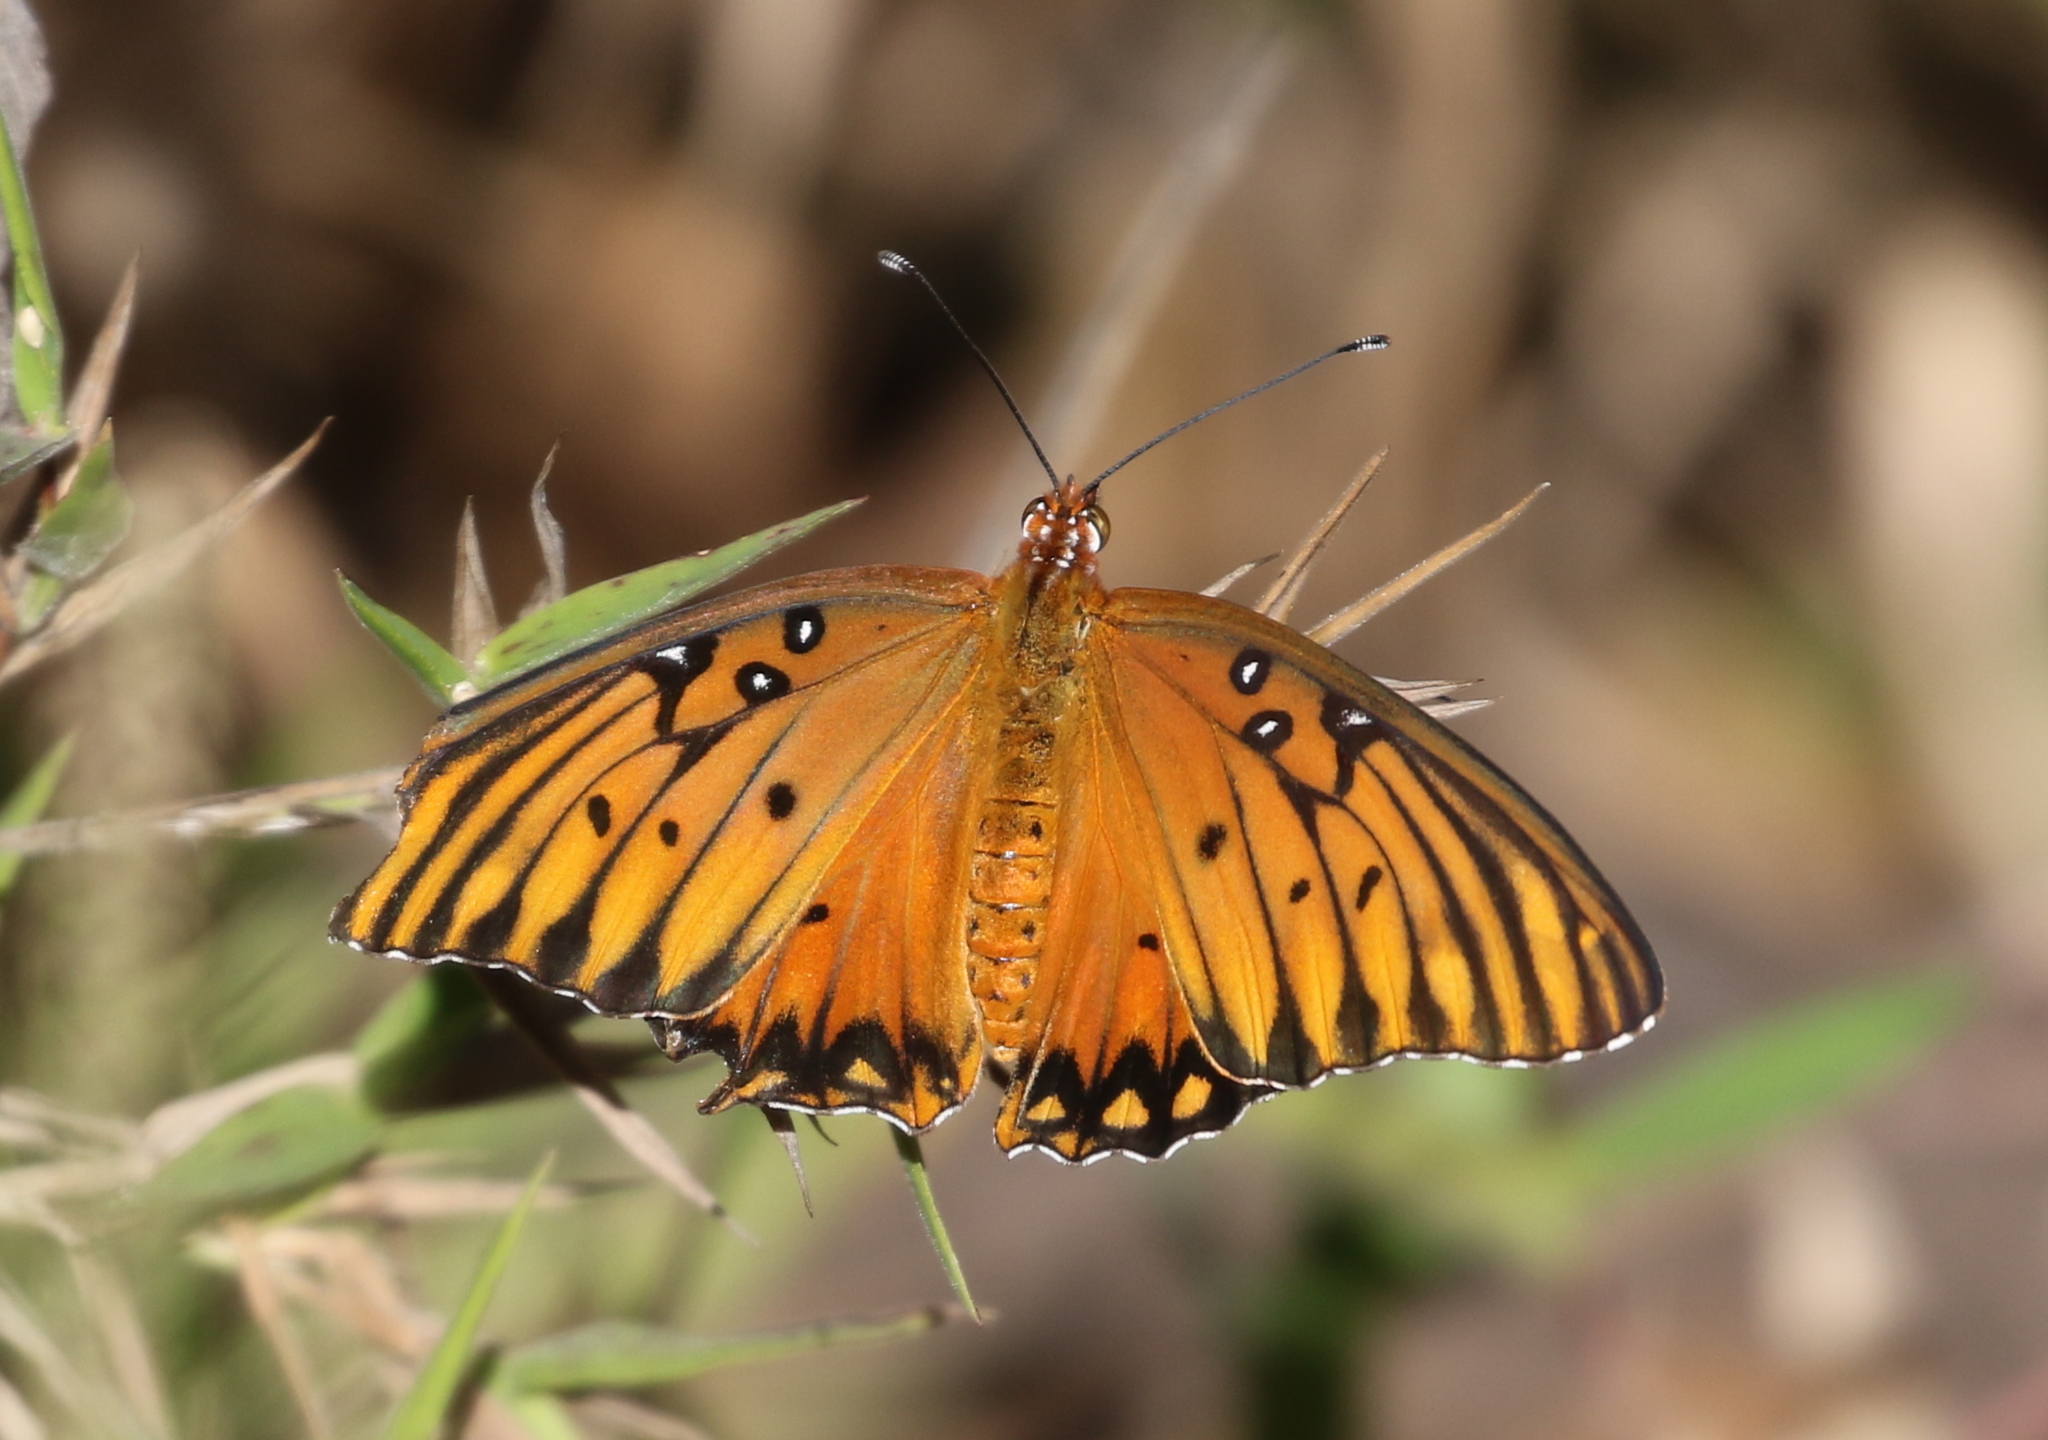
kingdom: Animalia
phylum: Arthropoda
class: Insecta
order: Lepidoptera
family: Nymphalidae
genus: Dione
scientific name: Dione vanillae
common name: Gulf fritillary
